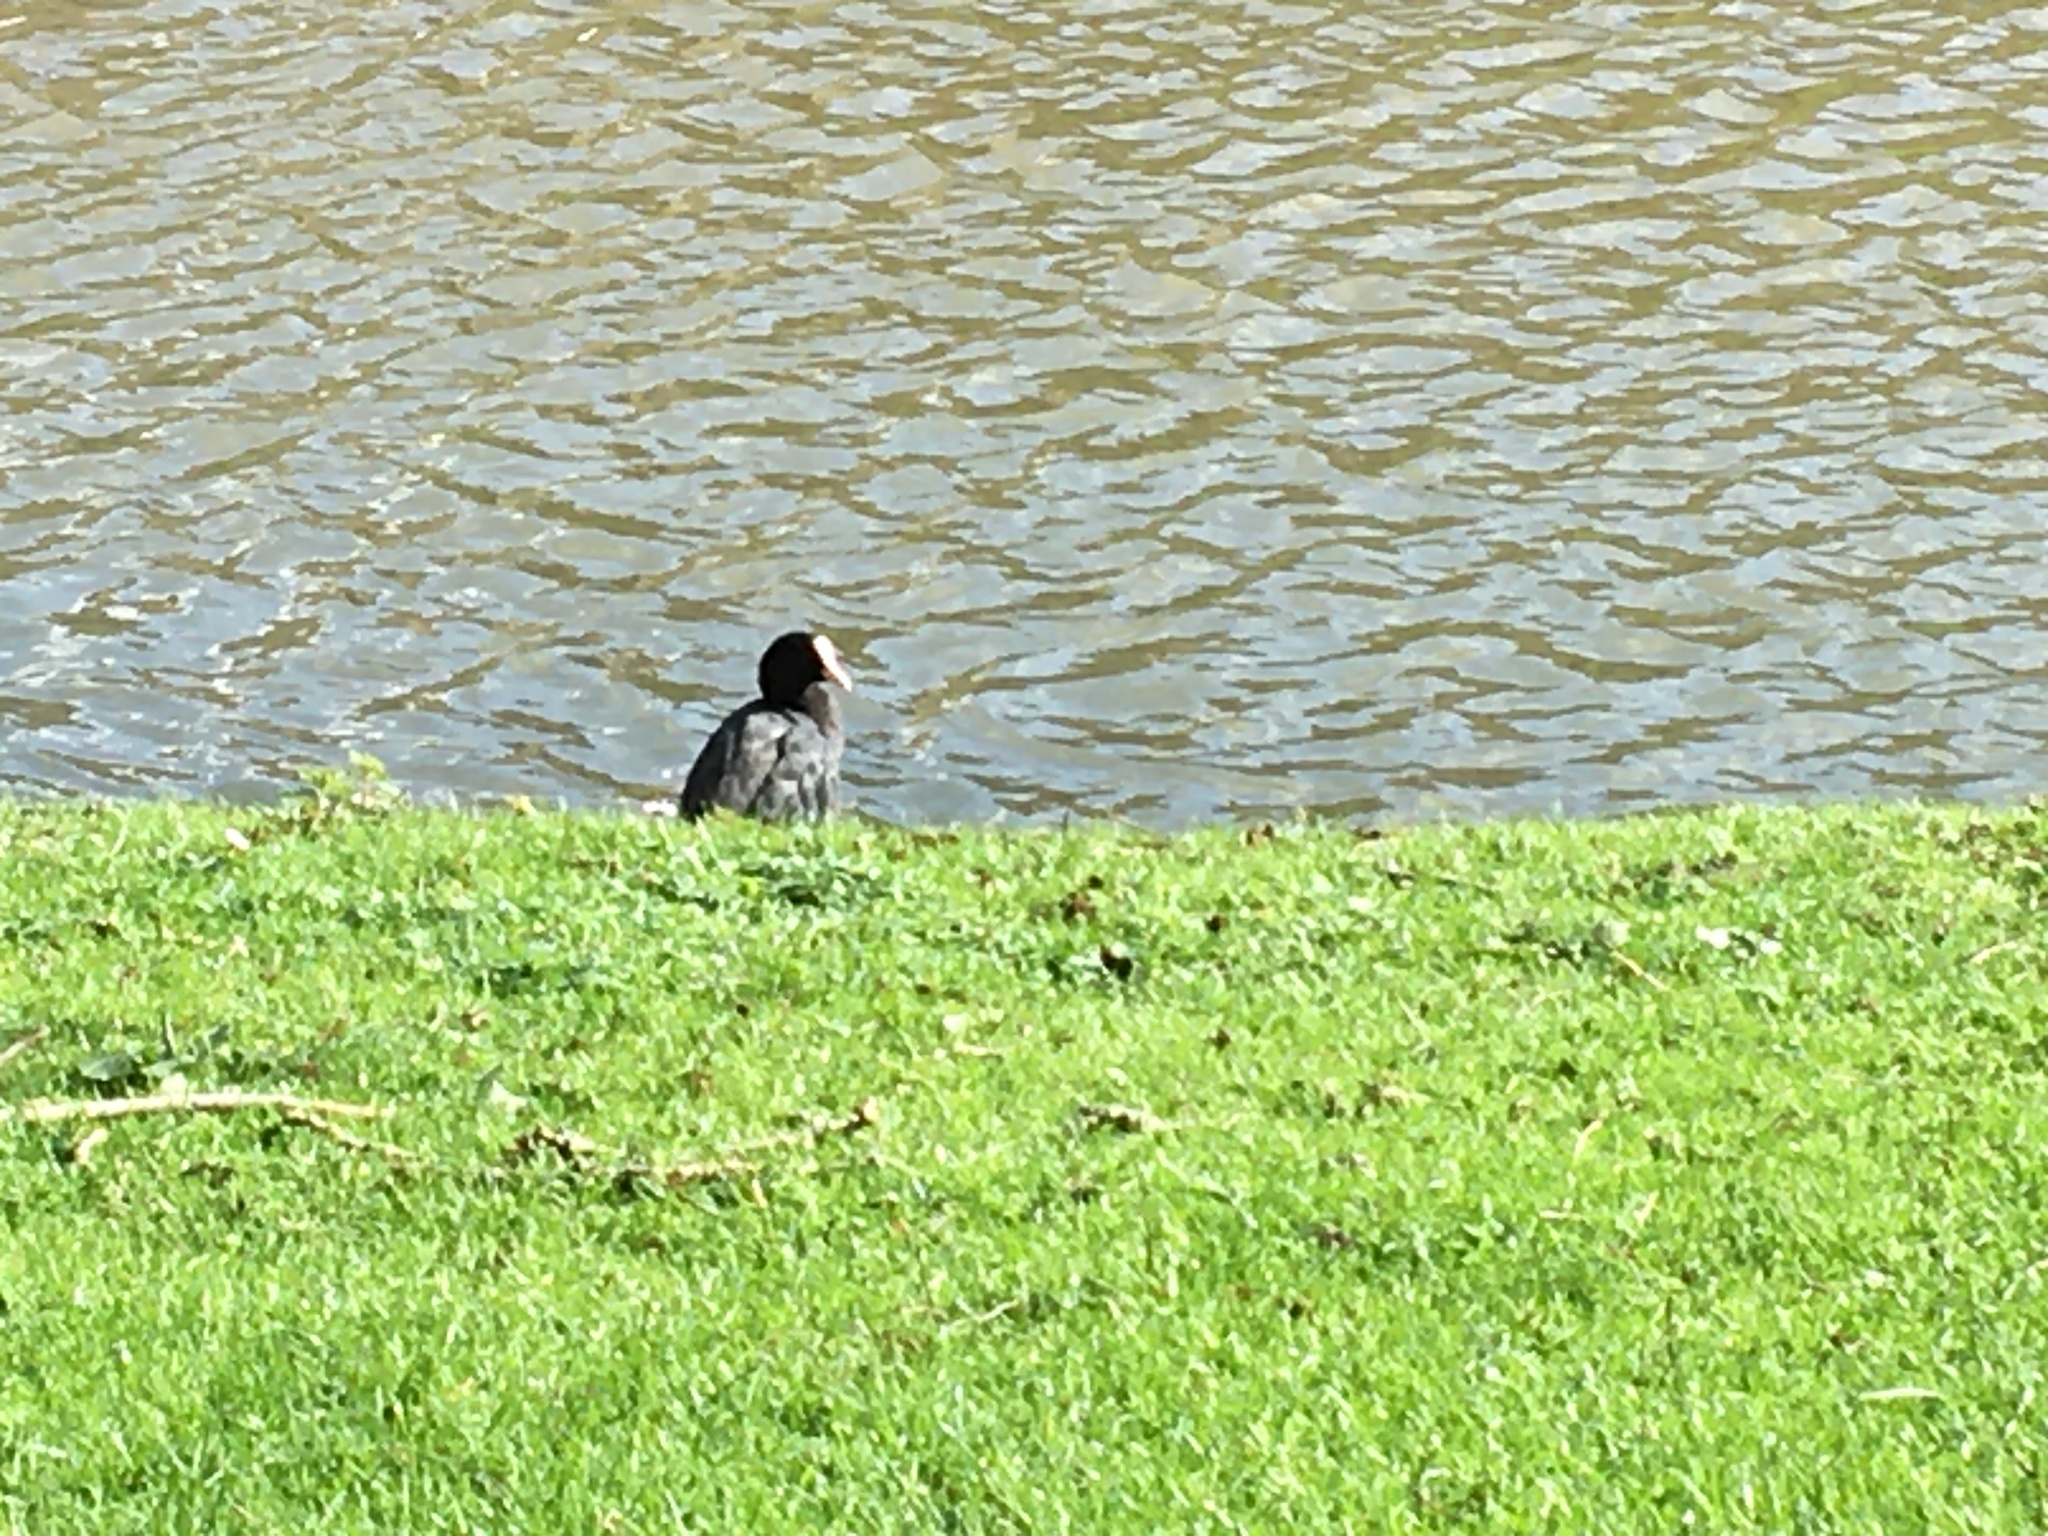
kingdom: Animalia
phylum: Chordata
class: Aves
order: Gruiformes
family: Rallidae
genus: Fulica
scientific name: Fulica atra
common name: Eurasian coot
